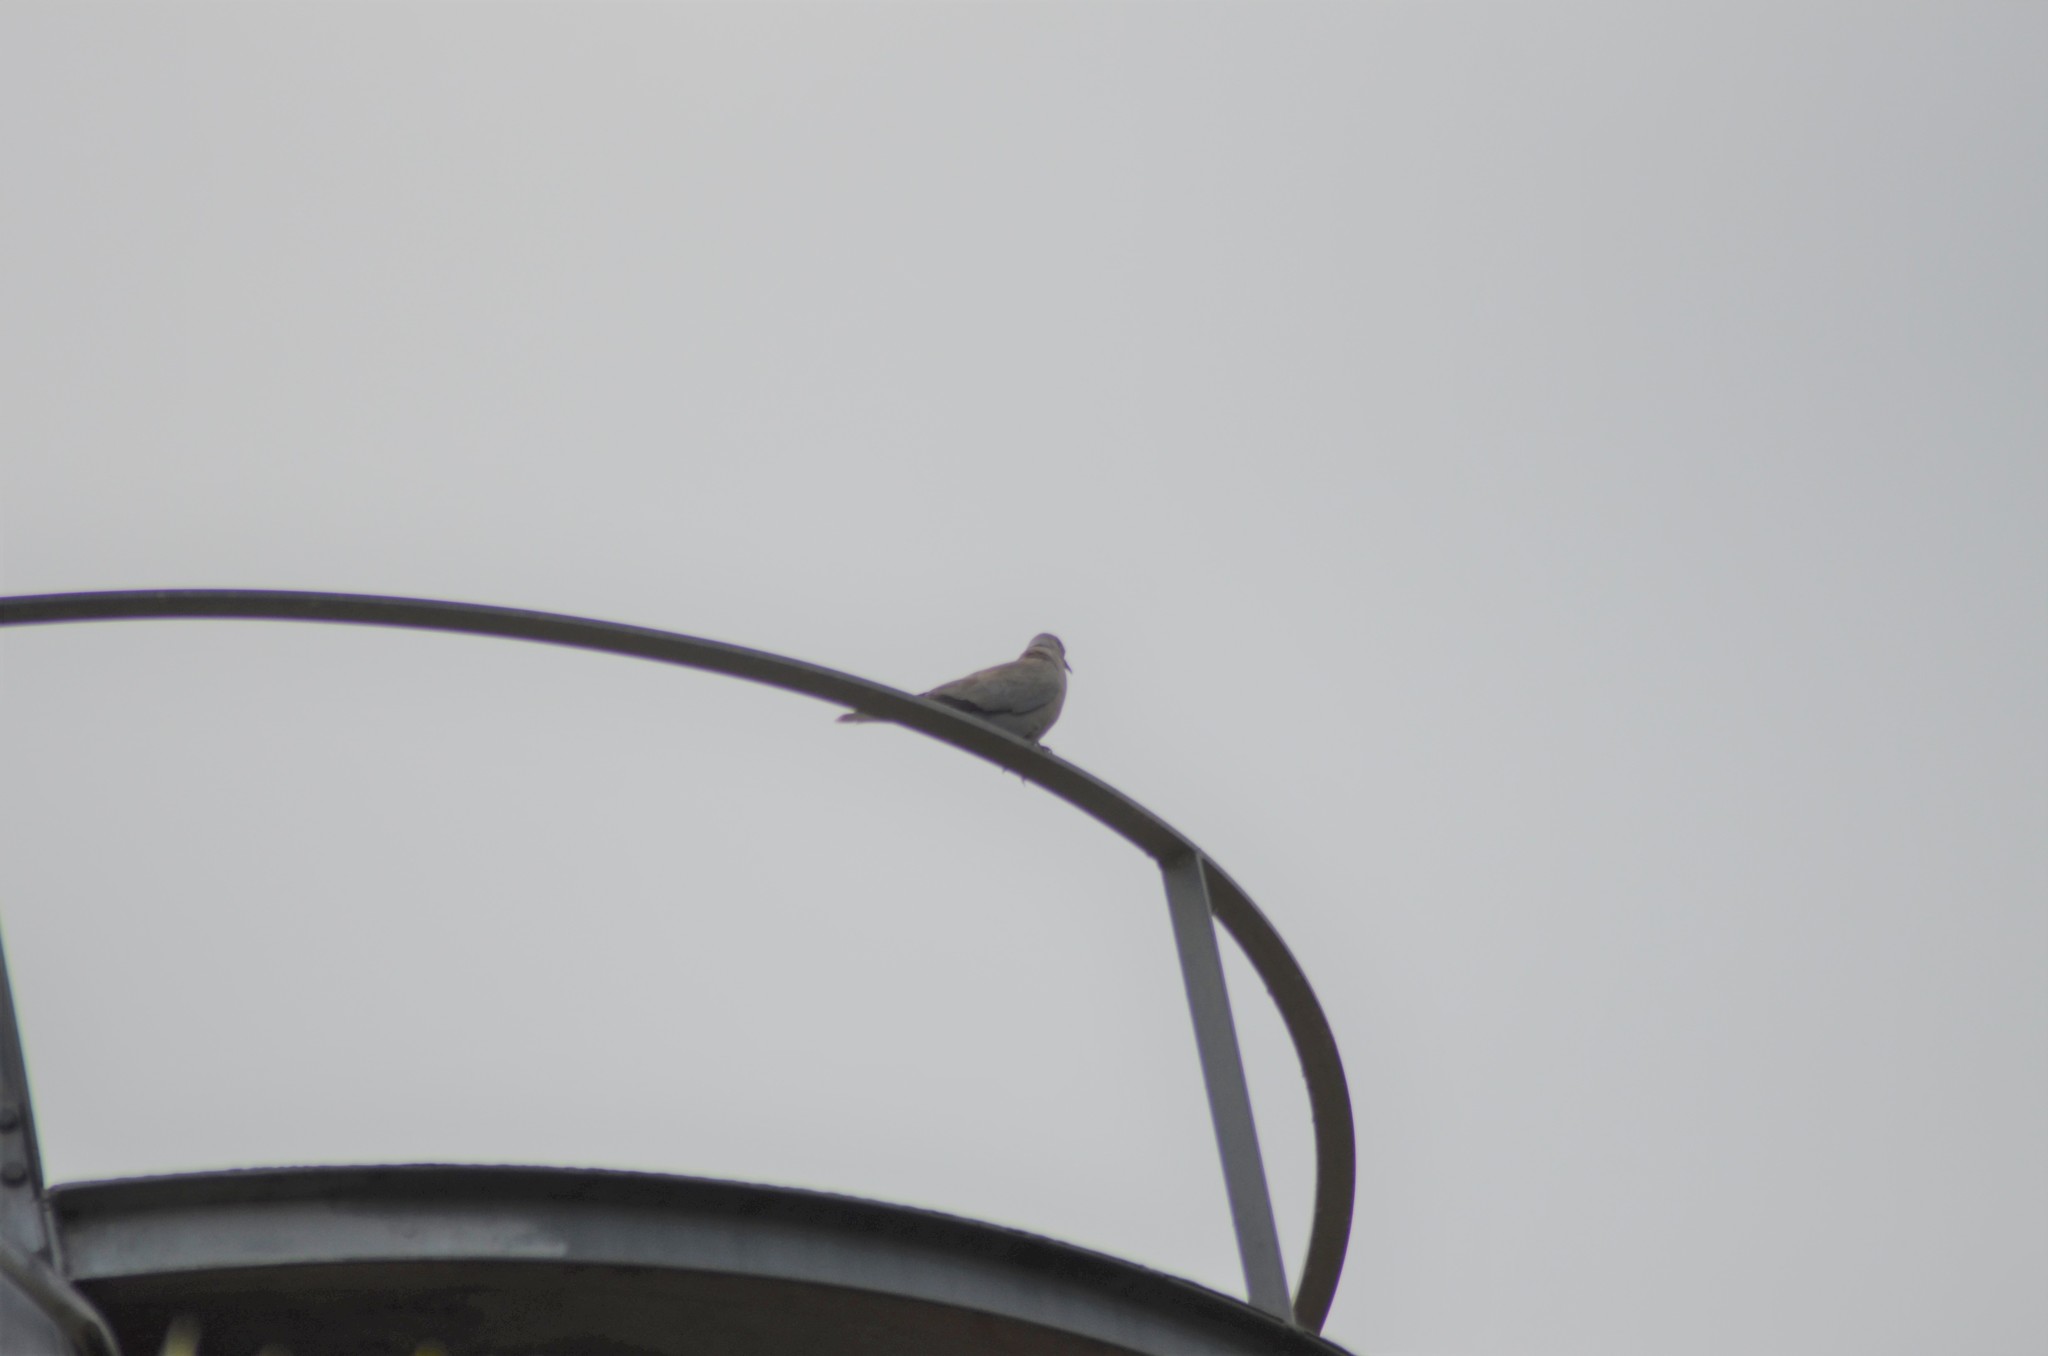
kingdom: Animalia
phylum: Chordata
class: Aves
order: Columbiformes
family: Columbidae
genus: Streptopelia
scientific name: Streptopelia decaocto
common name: Eurasian collared dove
